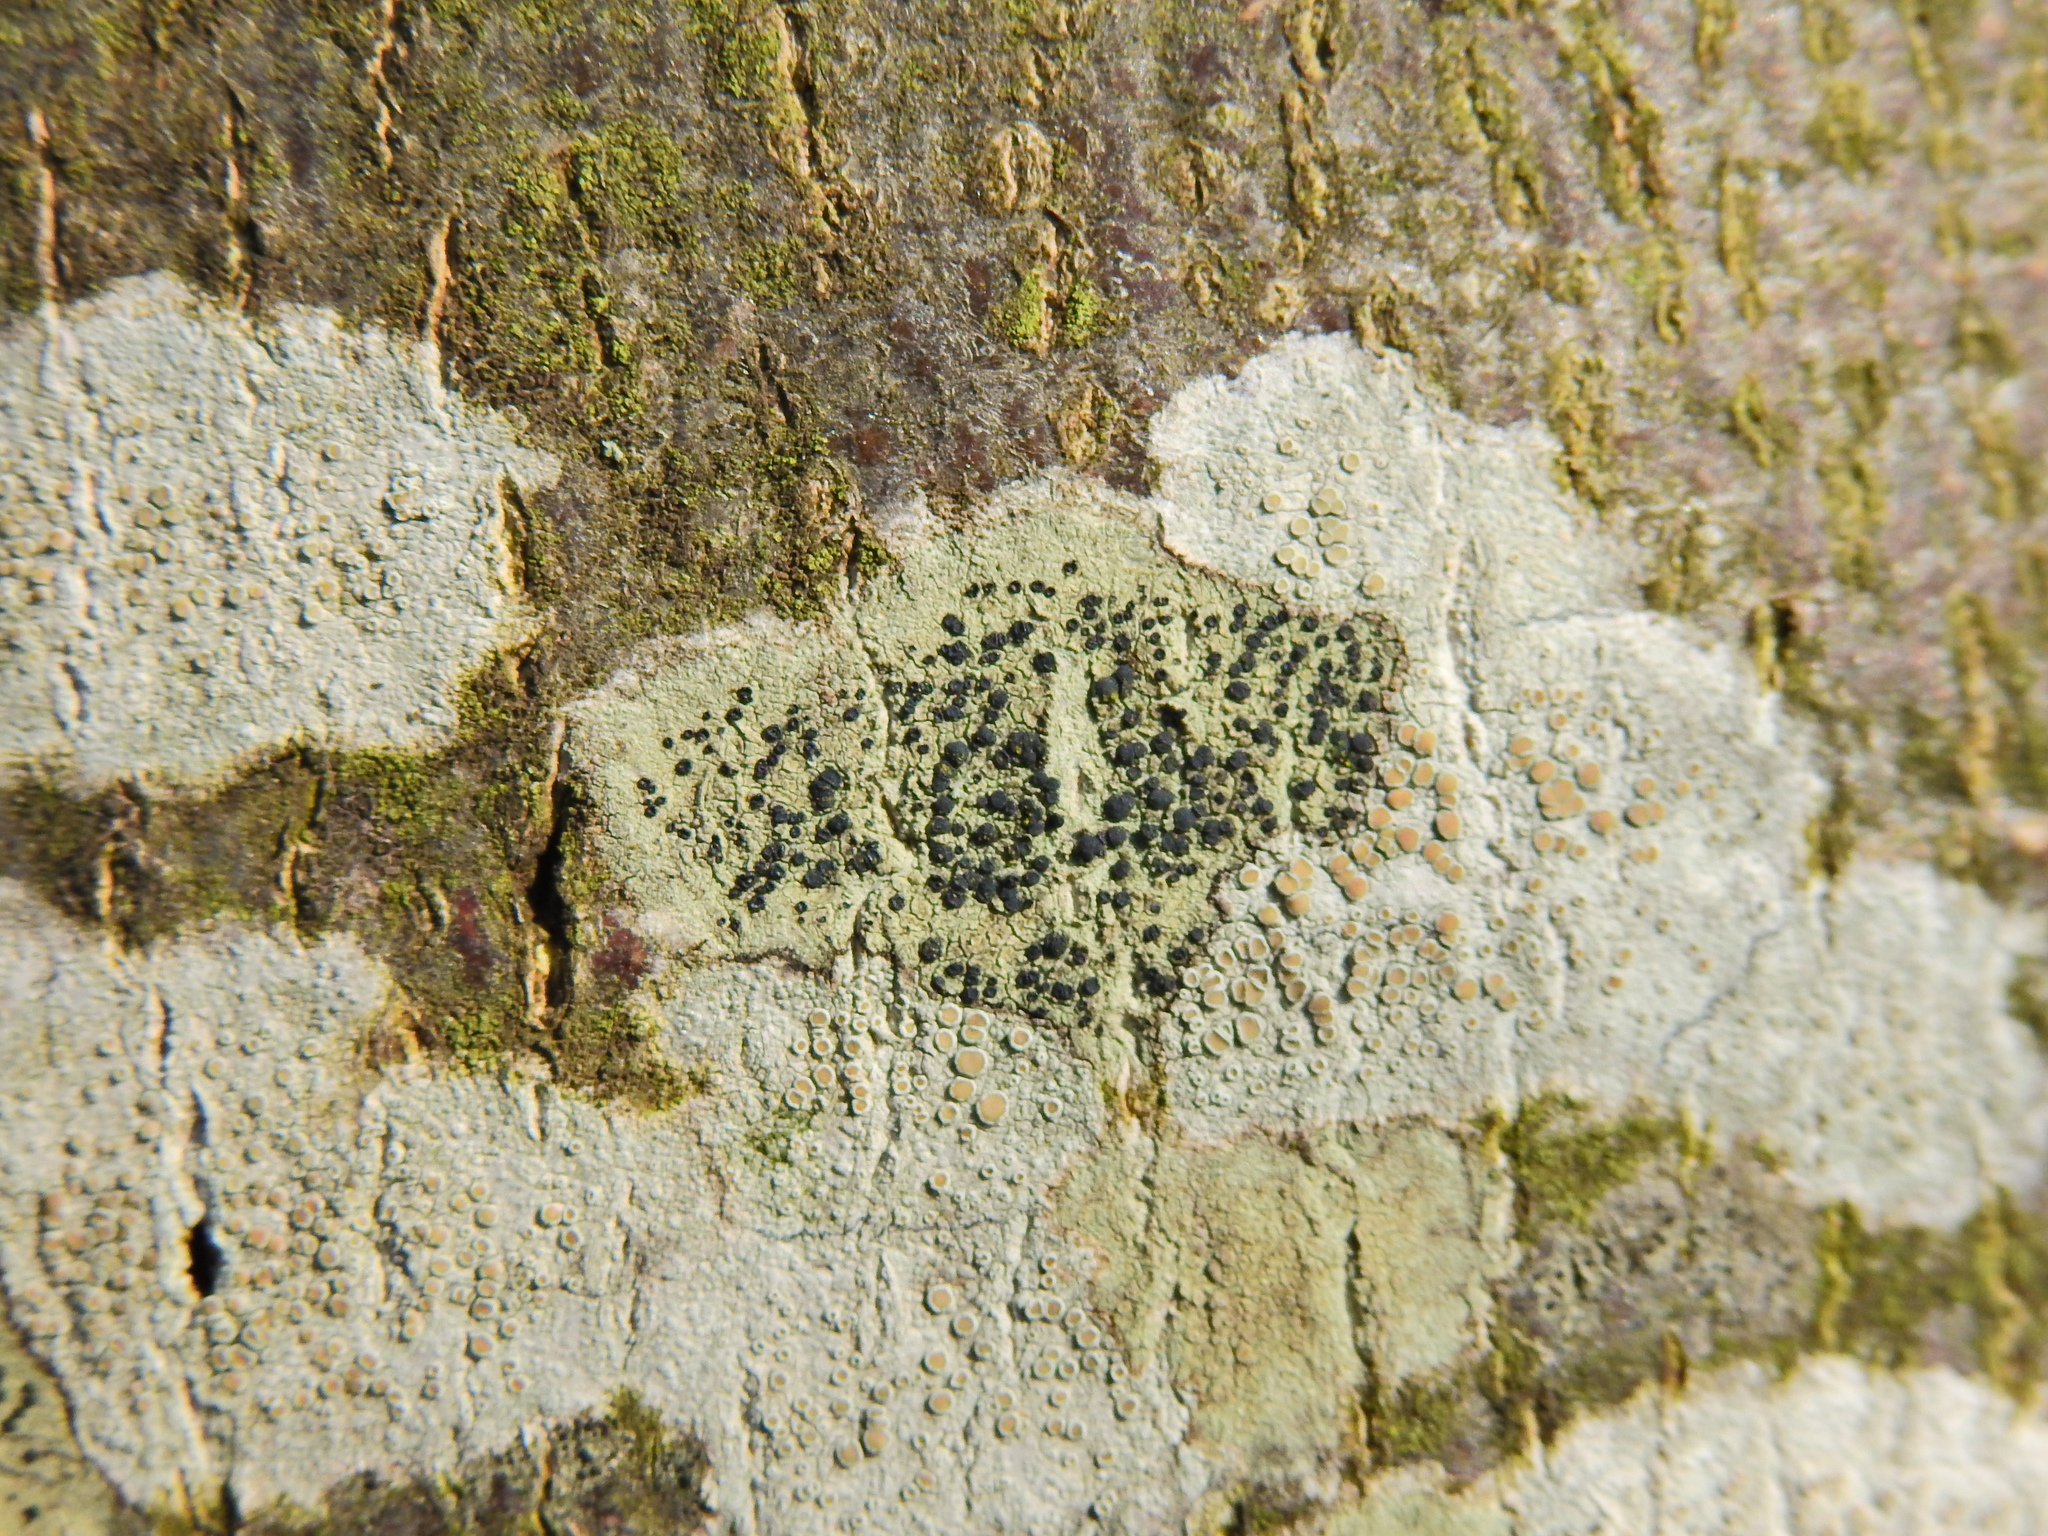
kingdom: Fungi
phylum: Ascomycota
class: Lecanoromycetes
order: Lecanorales
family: Lecanoraceae
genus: Lecidella
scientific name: Lecidella elaeochroma
